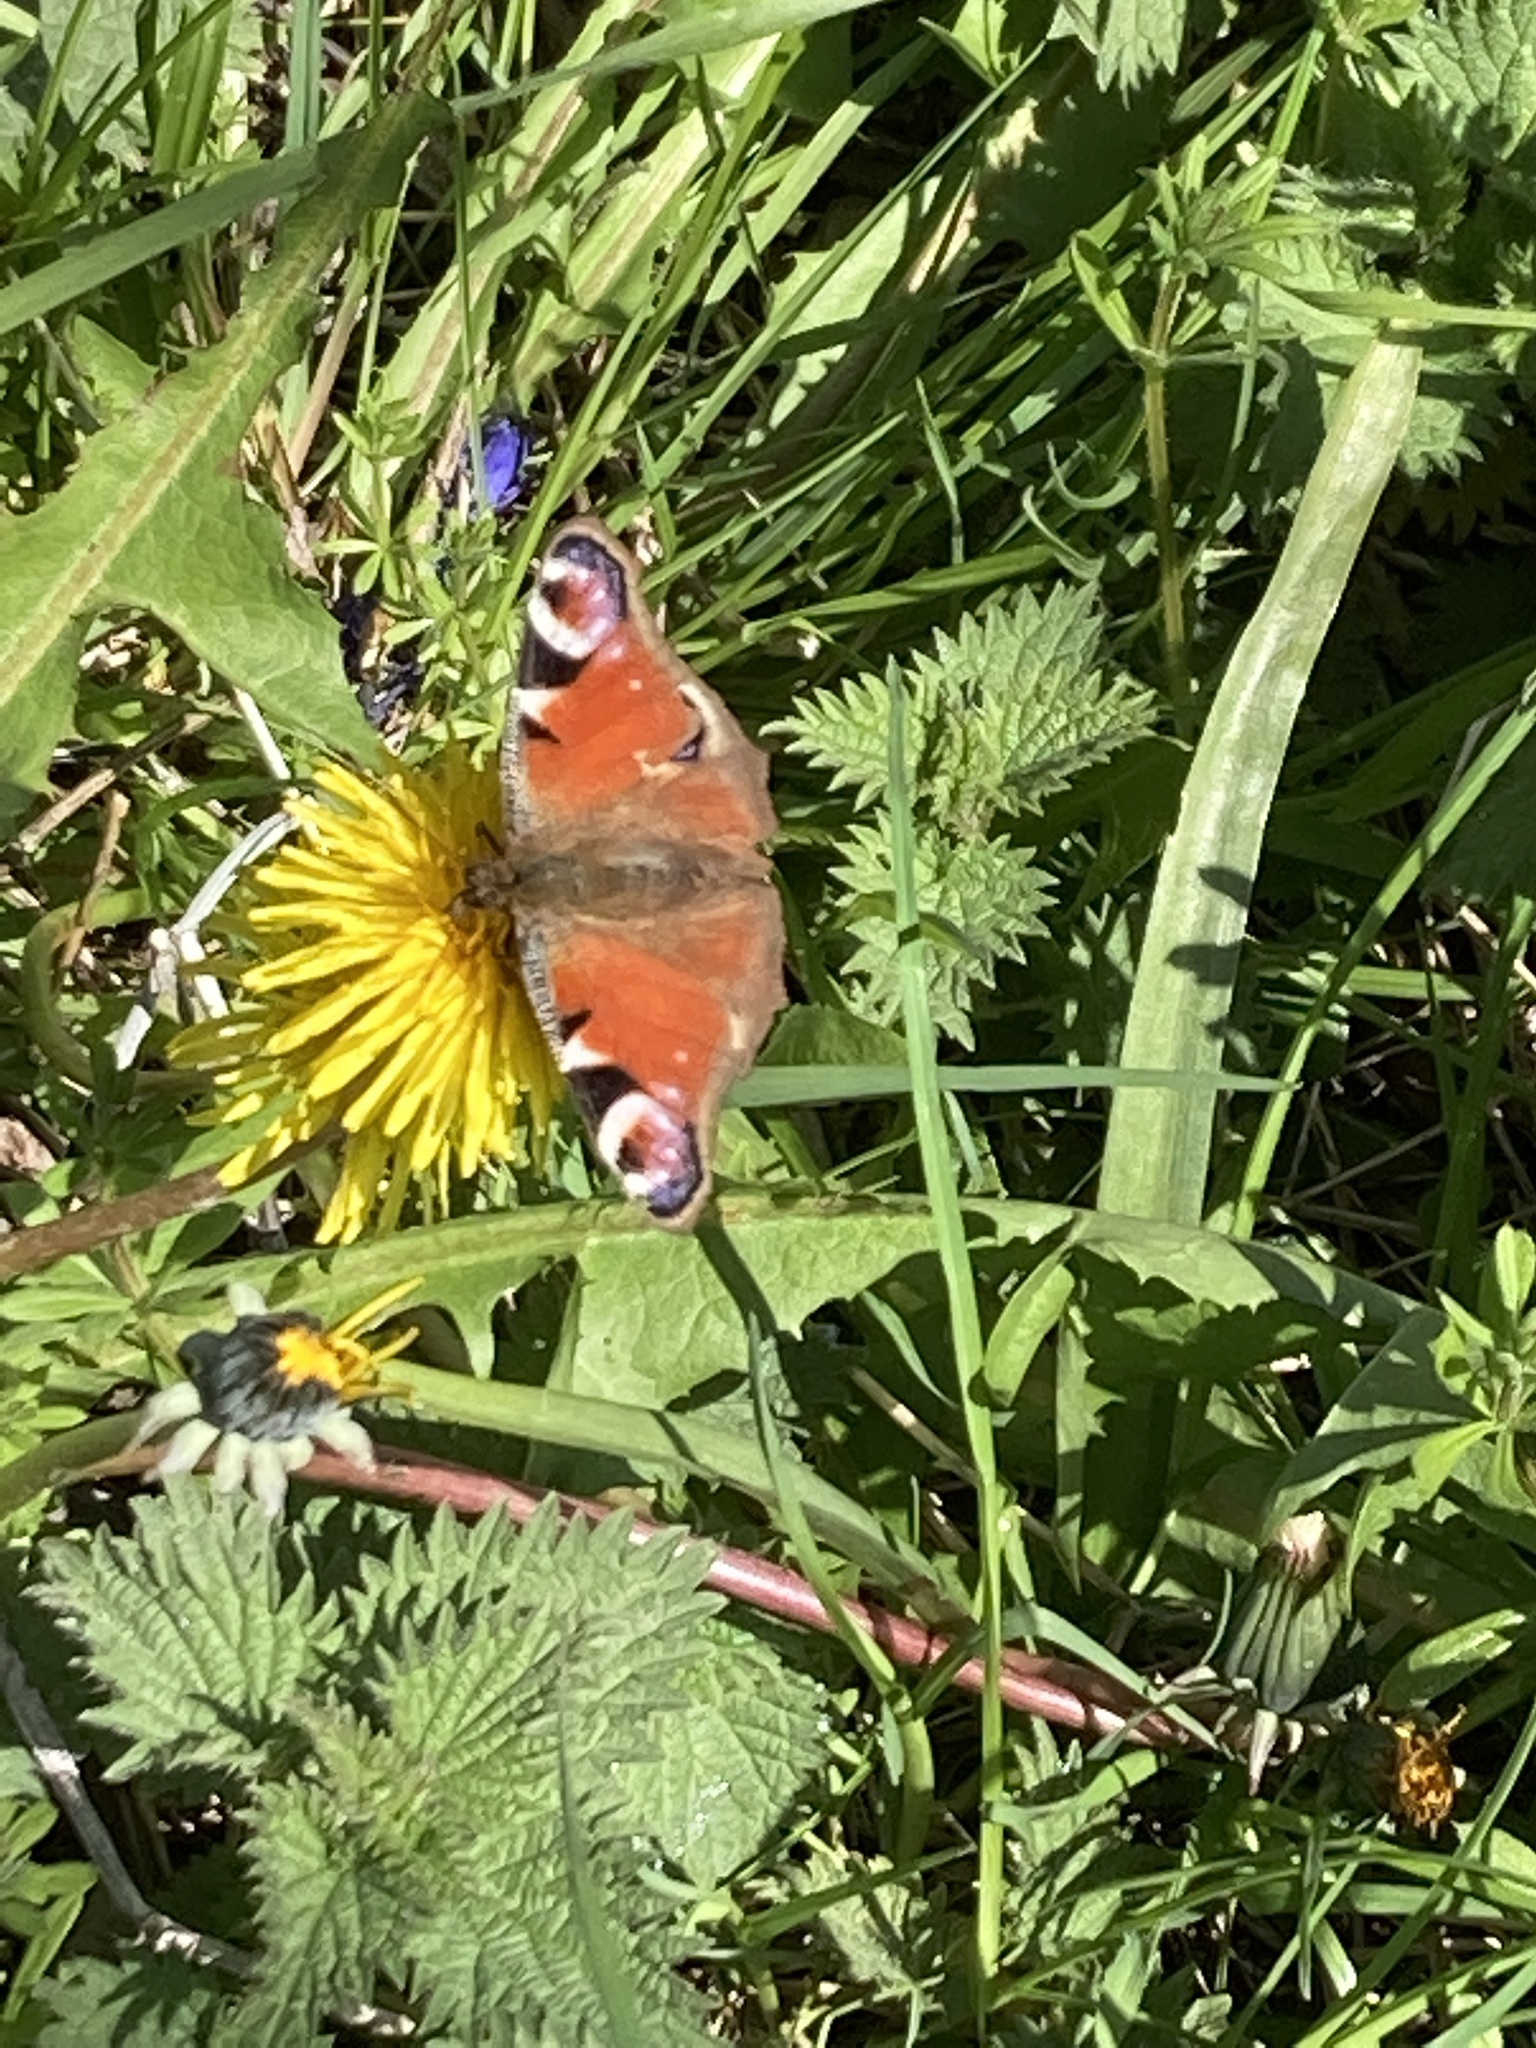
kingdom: Animalia
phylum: Arthropoda
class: Insecta
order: Lepidoptera
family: Nymphalidae
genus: Aglais
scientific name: Aglais io
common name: Peacock
